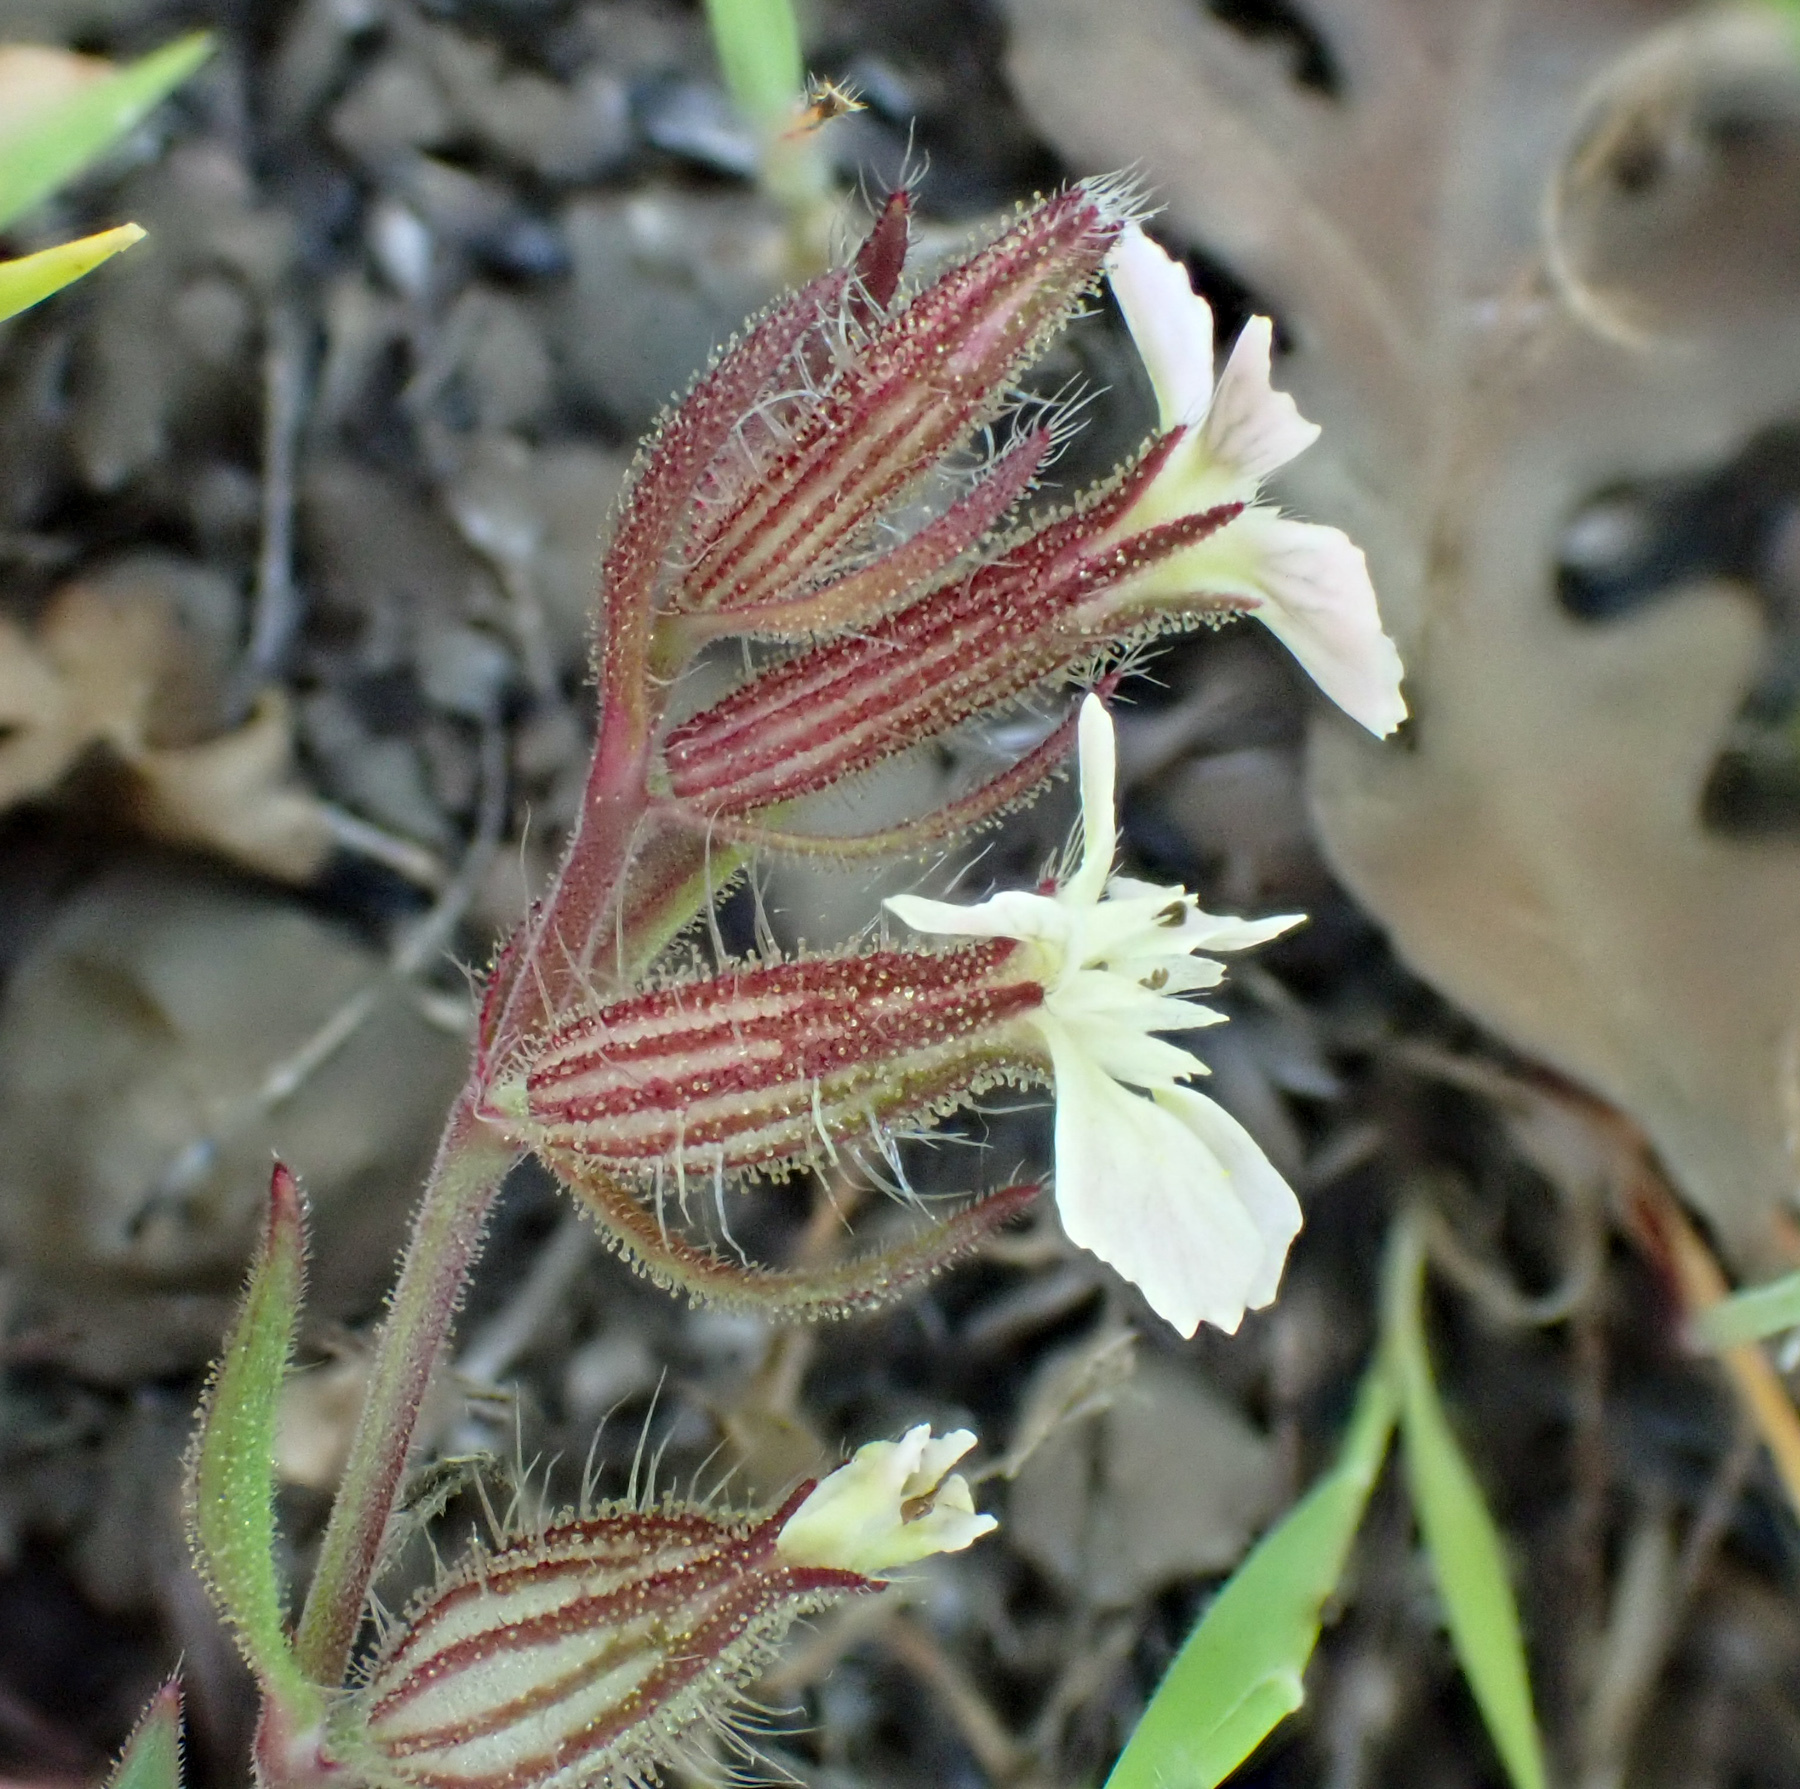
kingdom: Plantae
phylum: Tracheophyta
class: Magnoliopsida
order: Caryophyllales
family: Caryophyllaceae
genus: Silene
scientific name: Silene gallica
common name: Small-flowered catchfly
